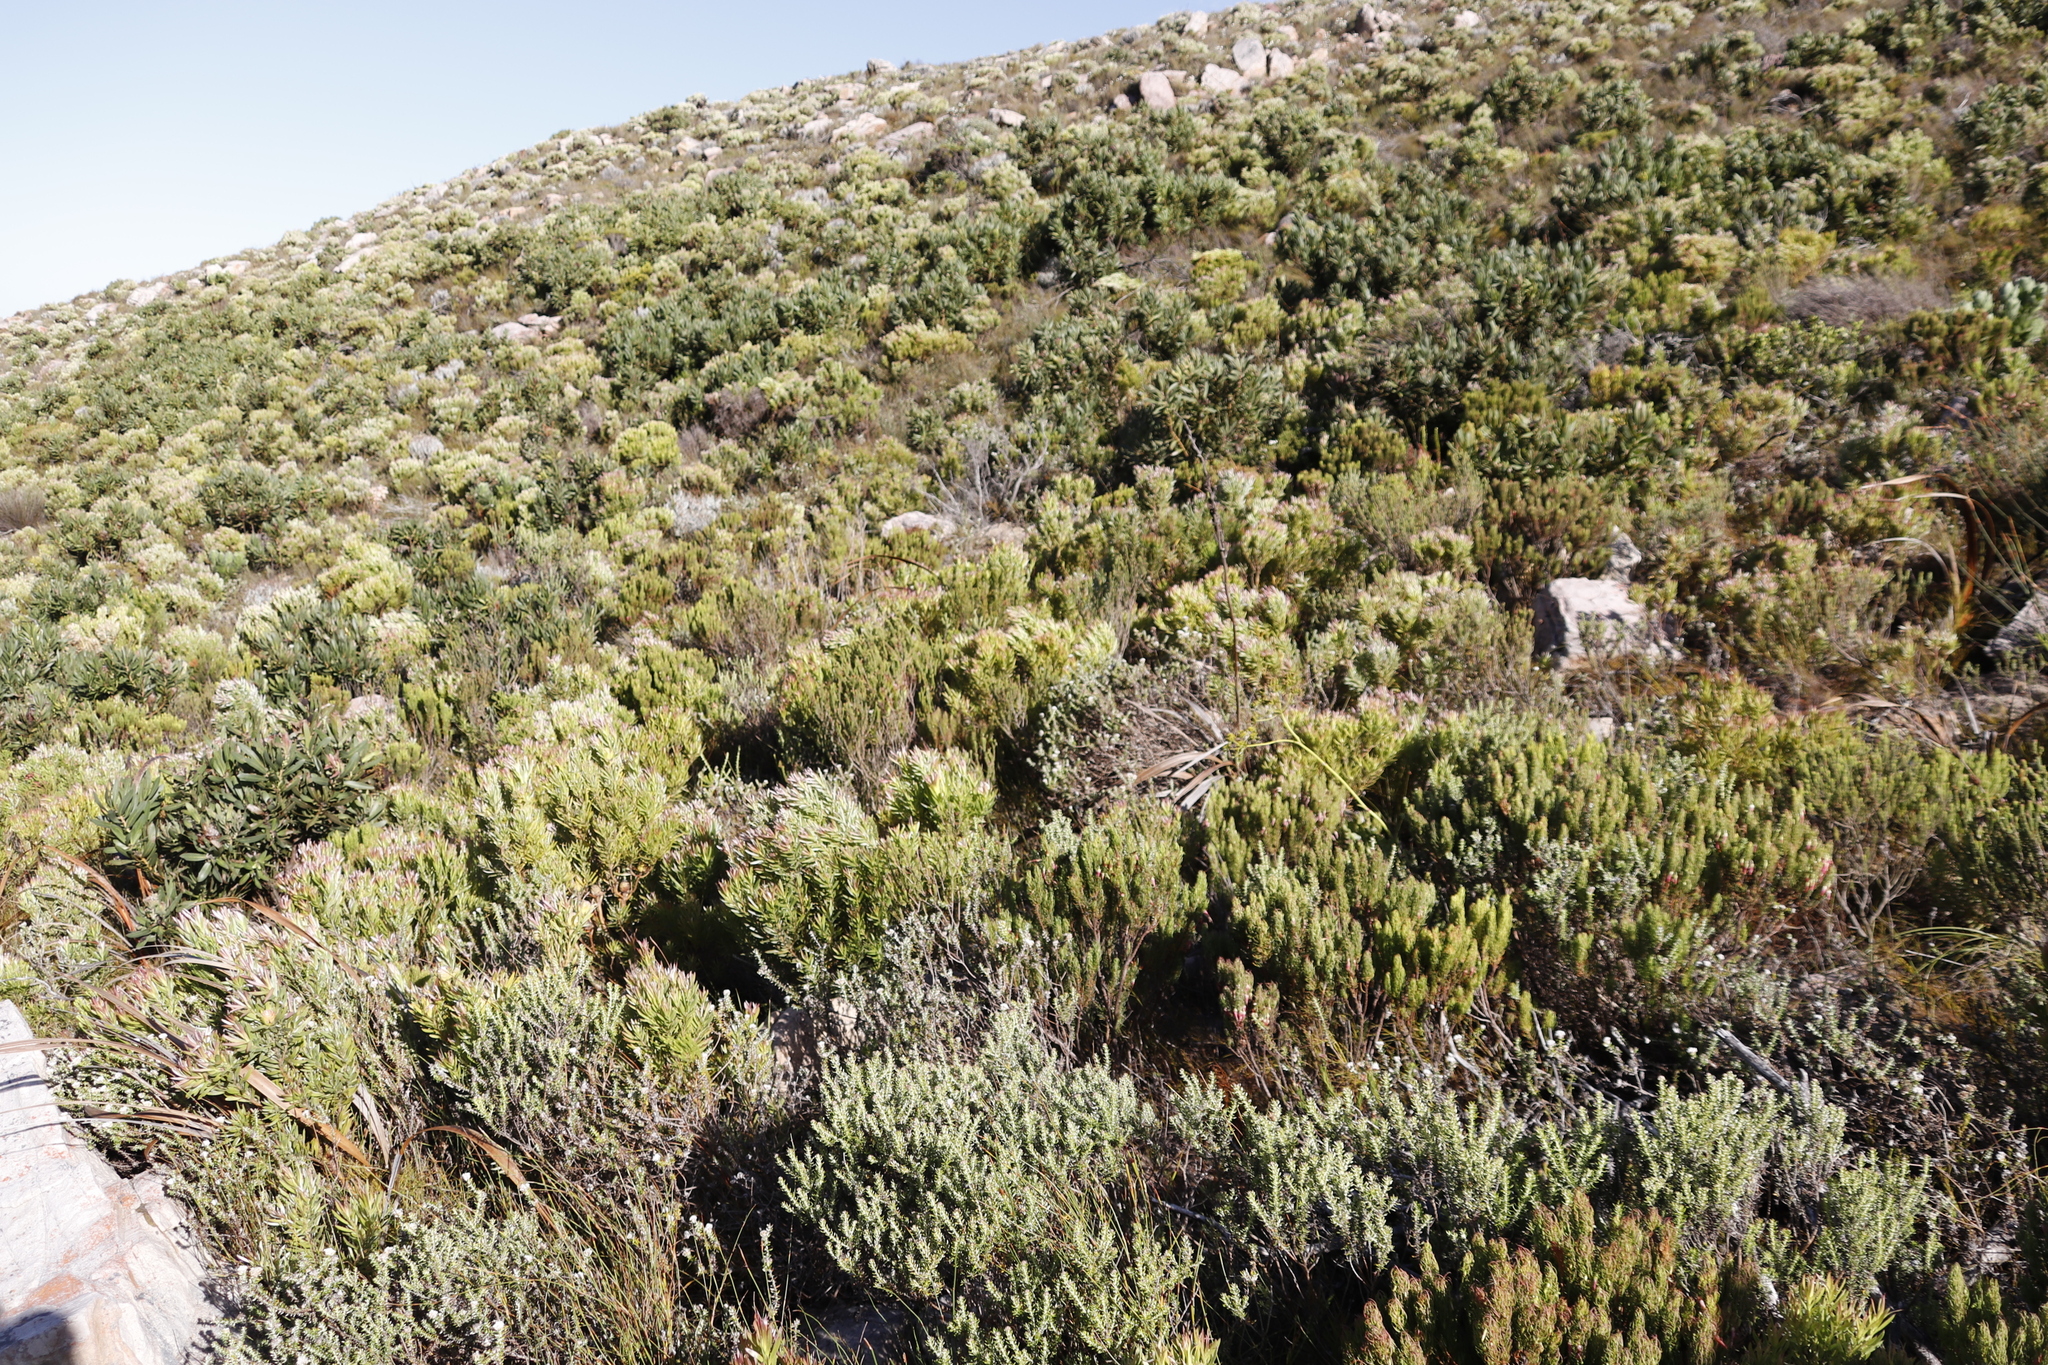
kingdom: Plantae
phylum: Tracheophyta
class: Magnoliopsida
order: Ericales
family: Ericaceae
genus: Erica
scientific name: Erica plukenetii
